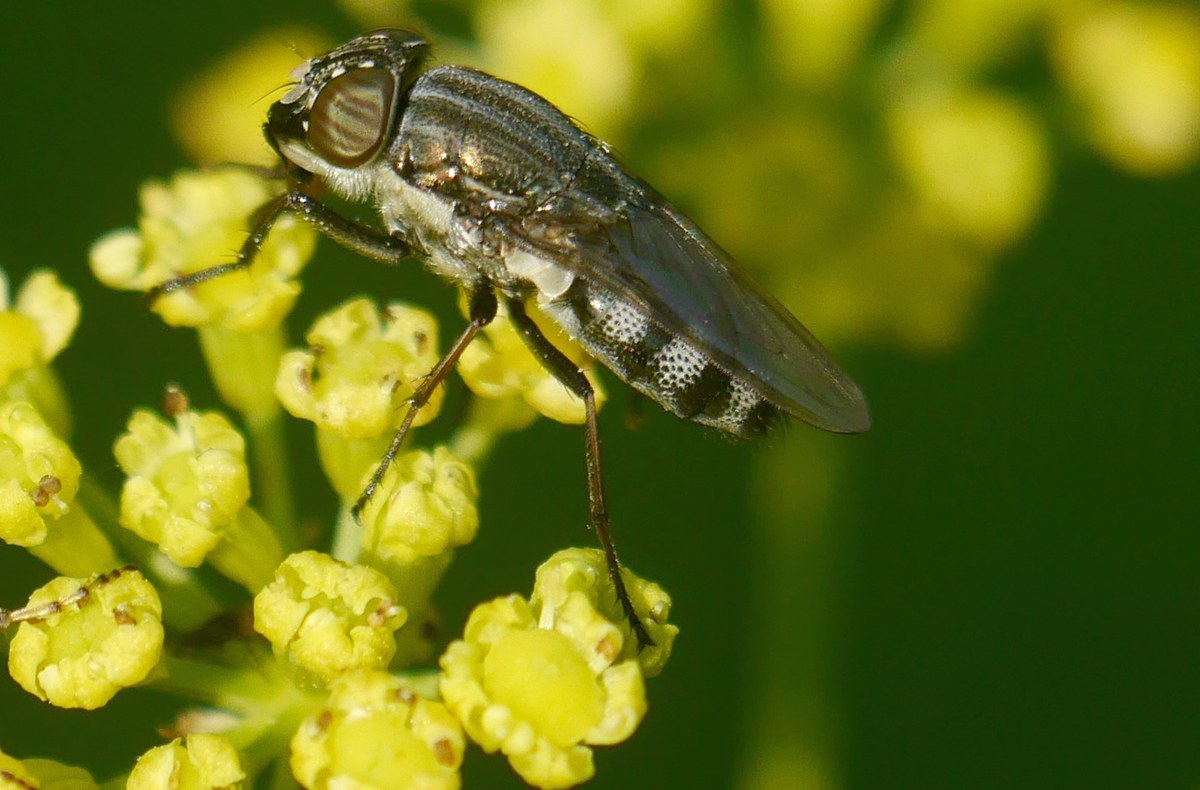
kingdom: Animalia
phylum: Arthropoda
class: Insecta
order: Diptera
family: Calliphoridae
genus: Stomorhina
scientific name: Stomorhina lunata
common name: Locust blowfly
